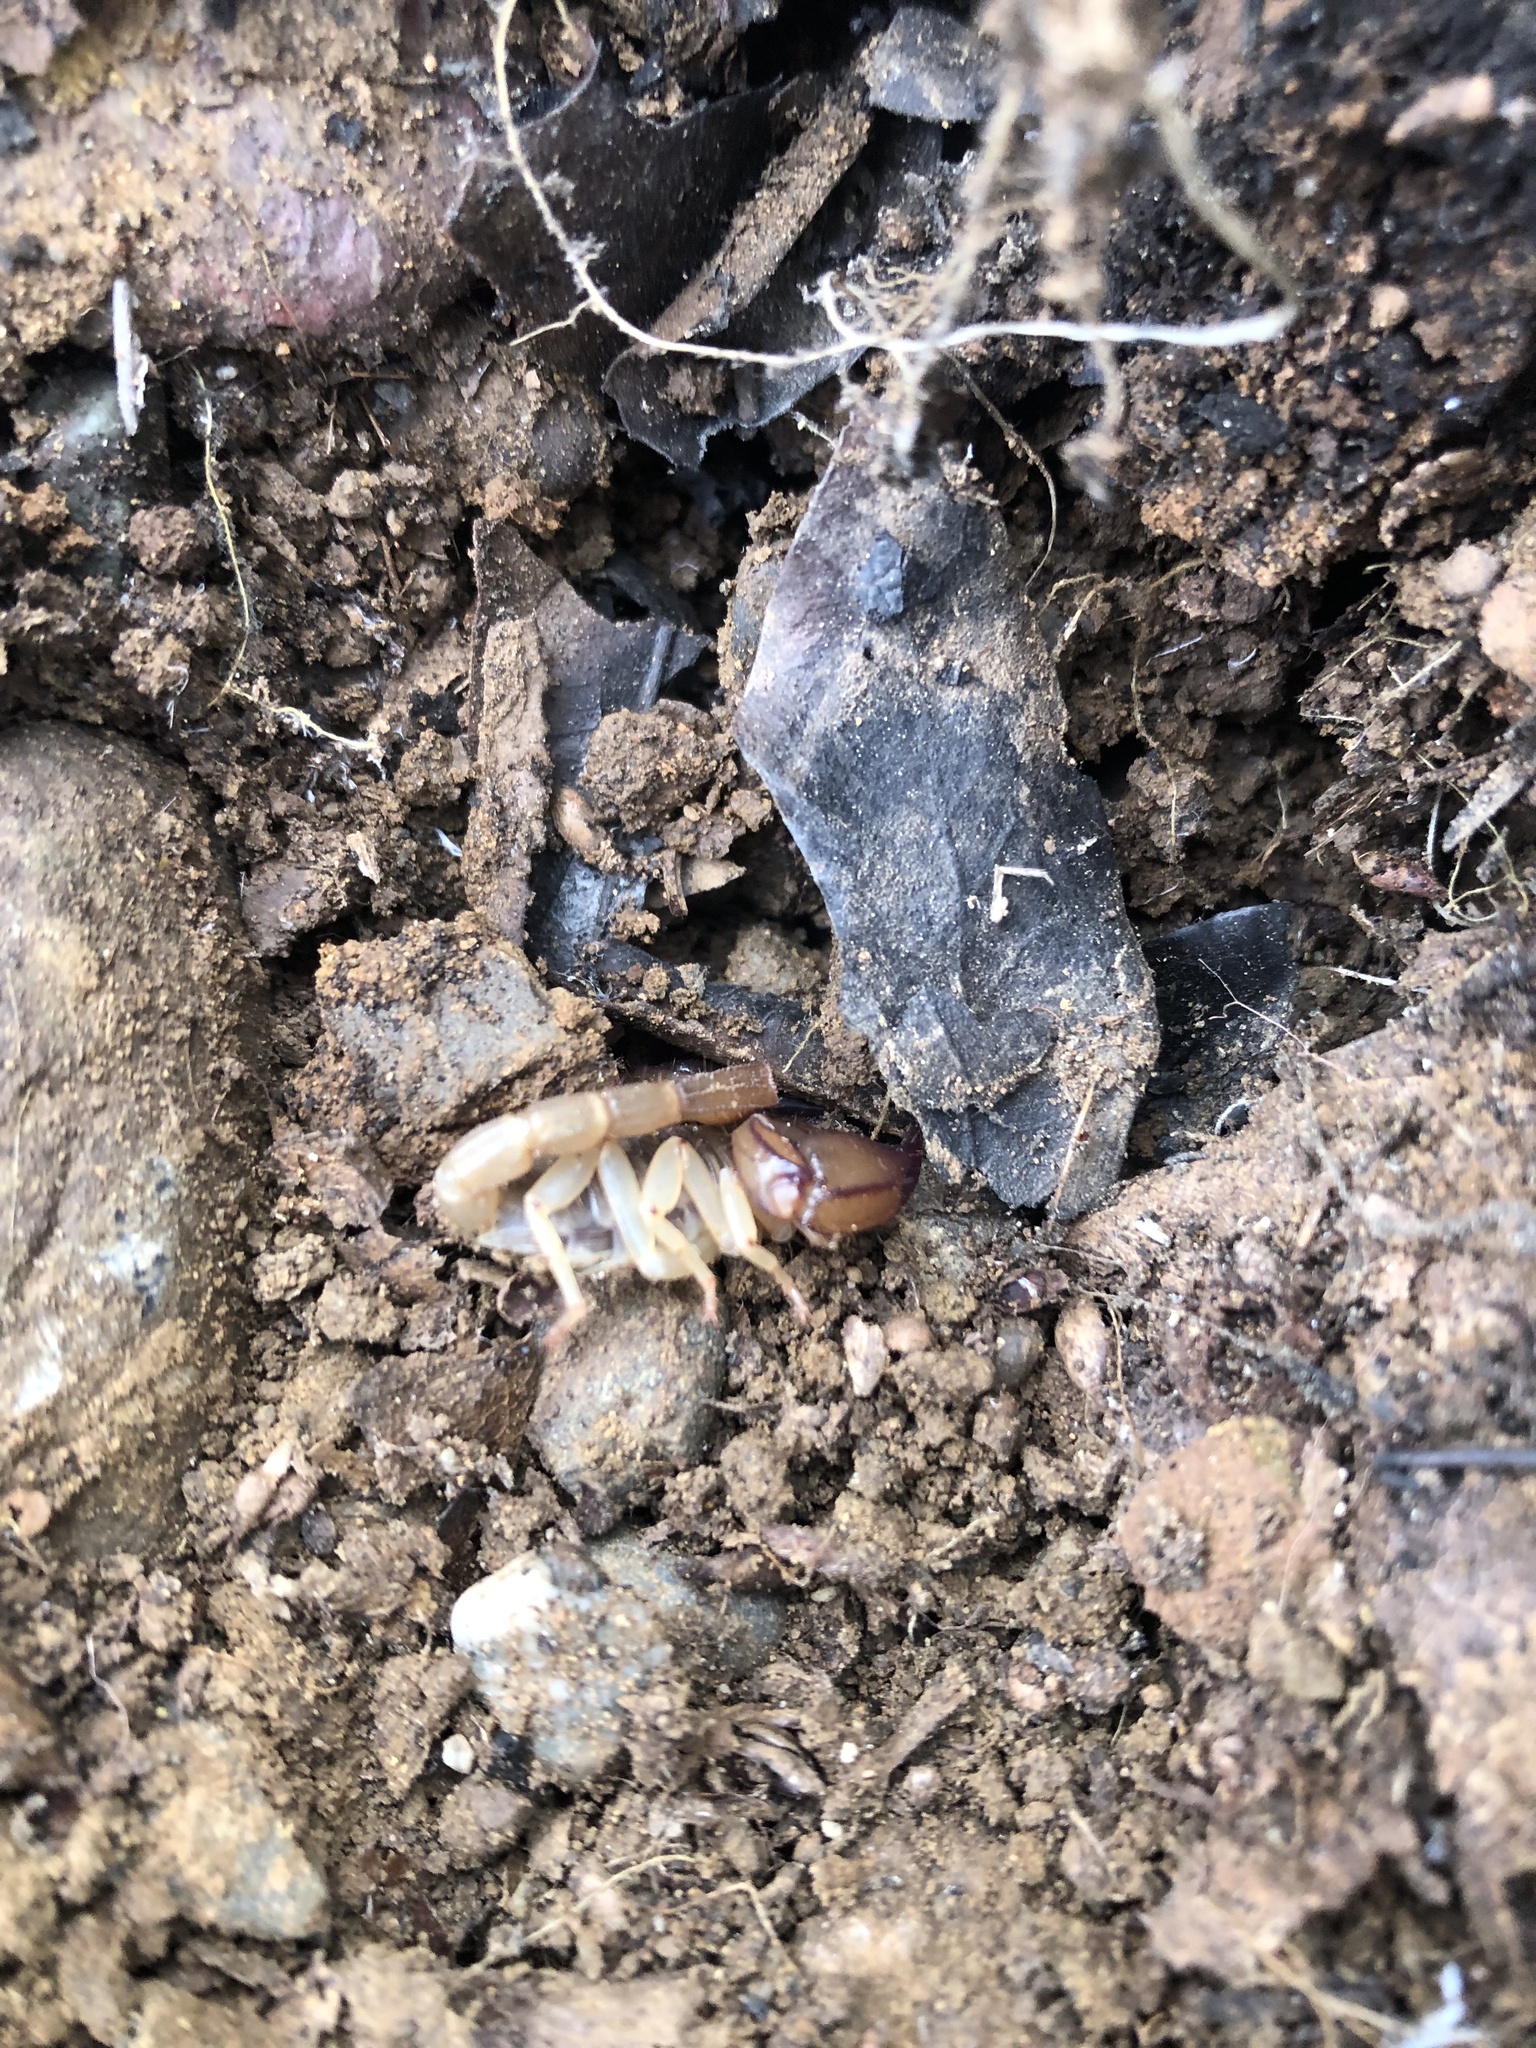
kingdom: Animalia
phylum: Arthropoda
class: Arachnida
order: Scorpiones
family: Chactidae
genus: Uroctonus
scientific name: Uroctonus mordax
